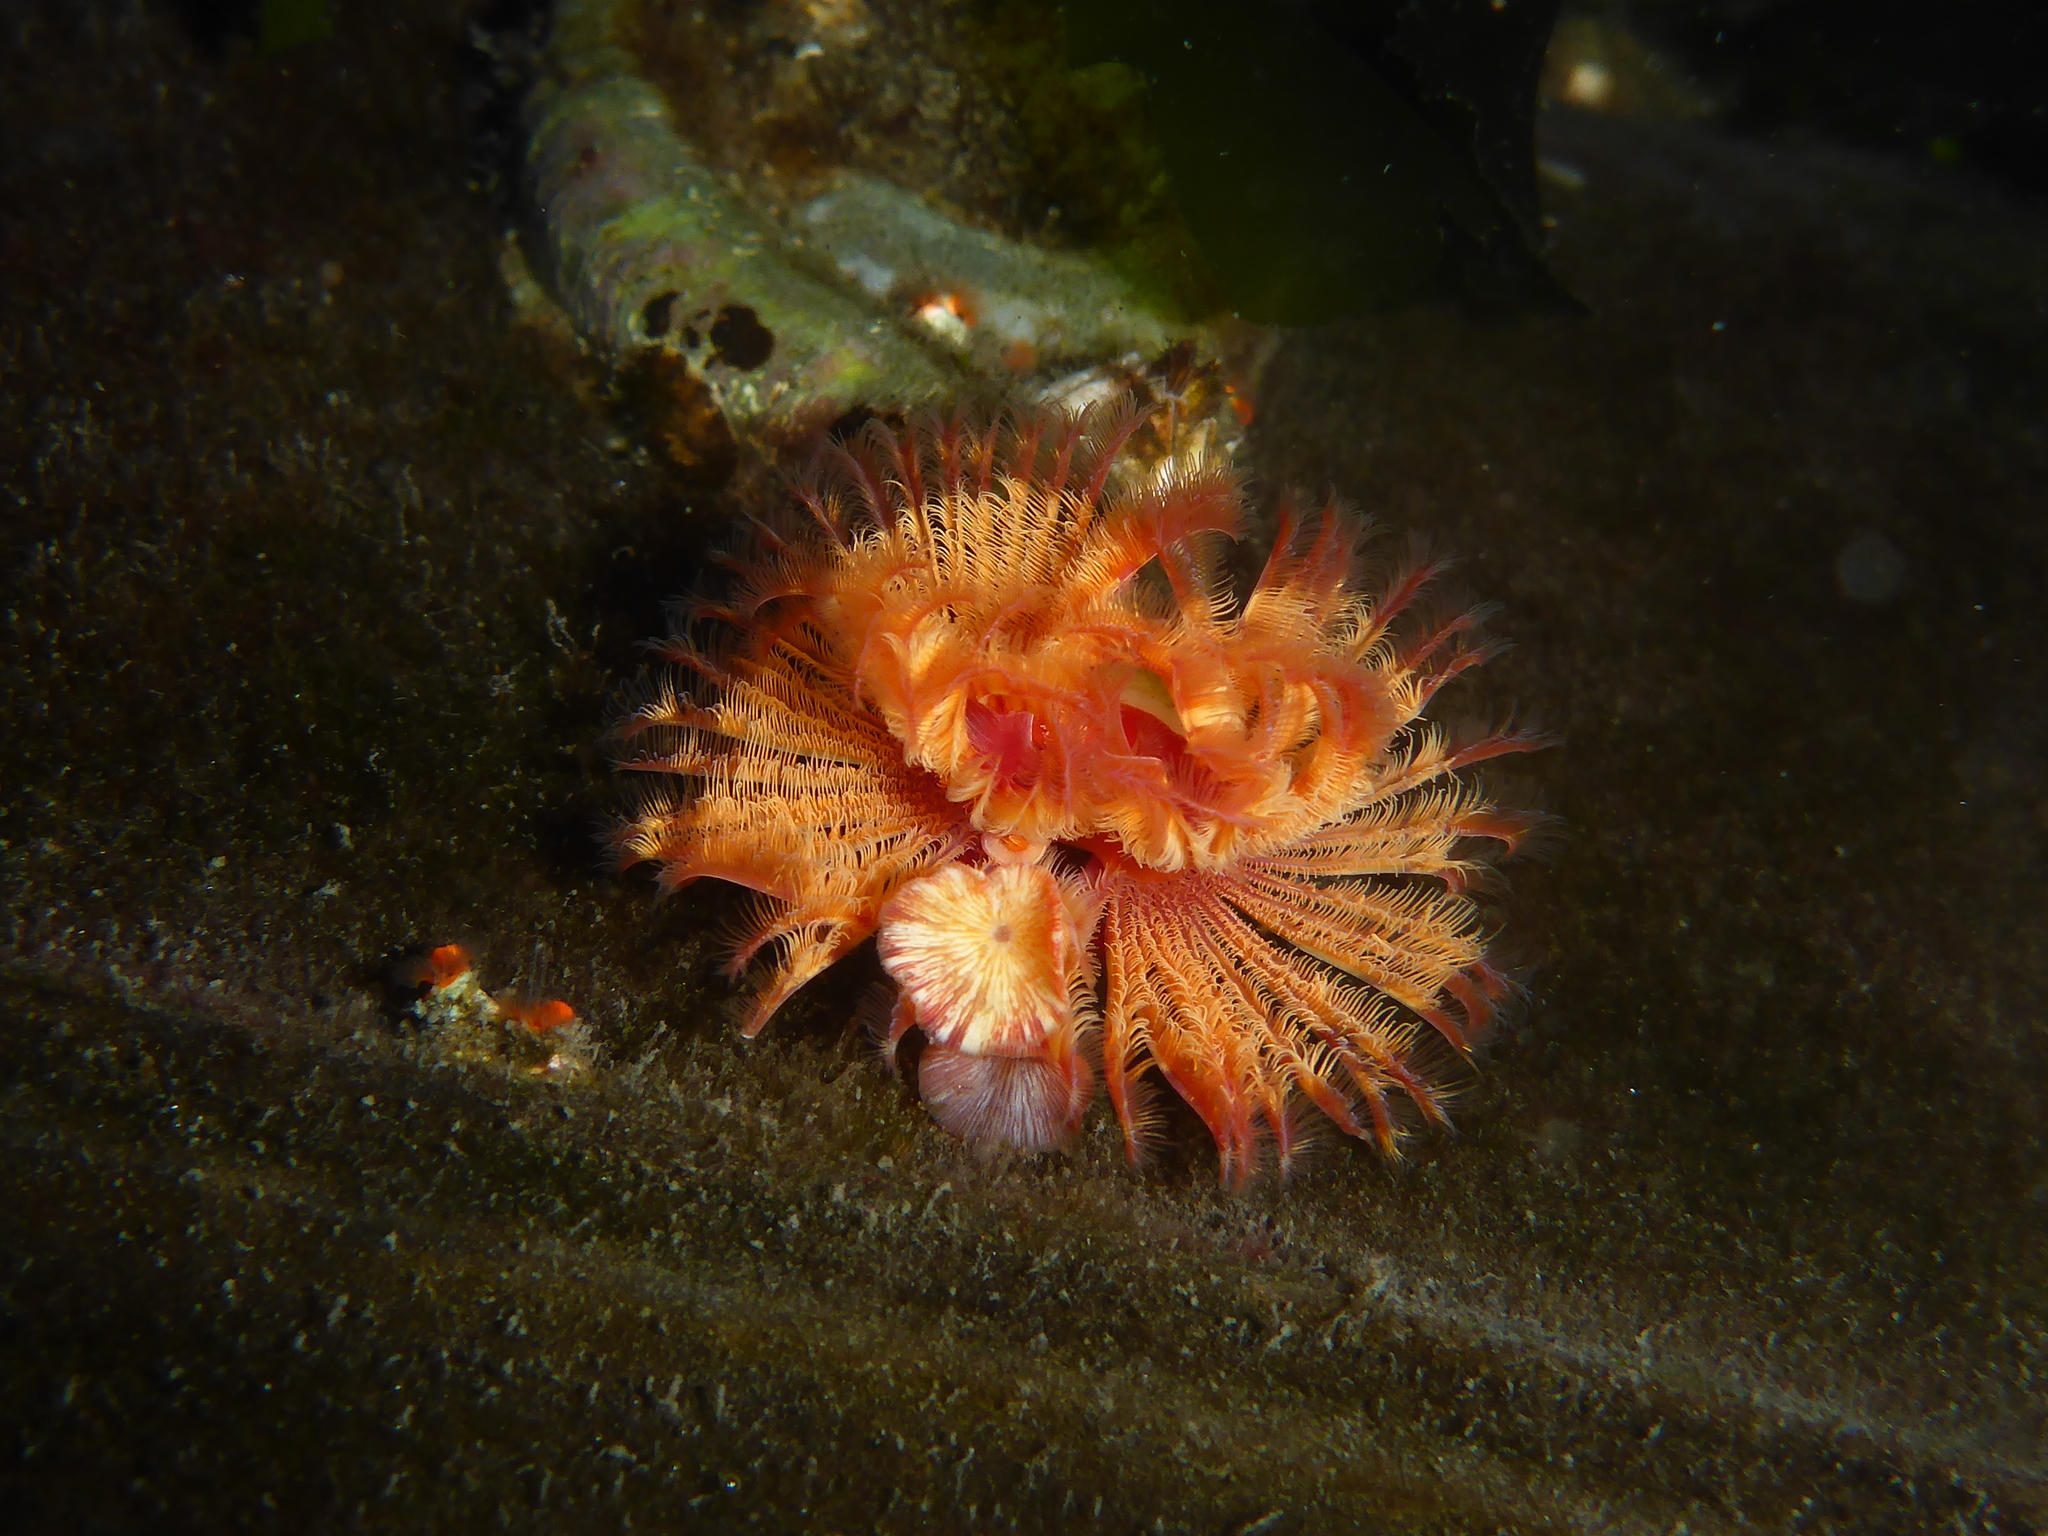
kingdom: Animalia
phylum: Annelida
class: Polychaeta
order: Sabellida
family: Serpulidae
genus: Serpula
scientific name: Serpula columbiana
